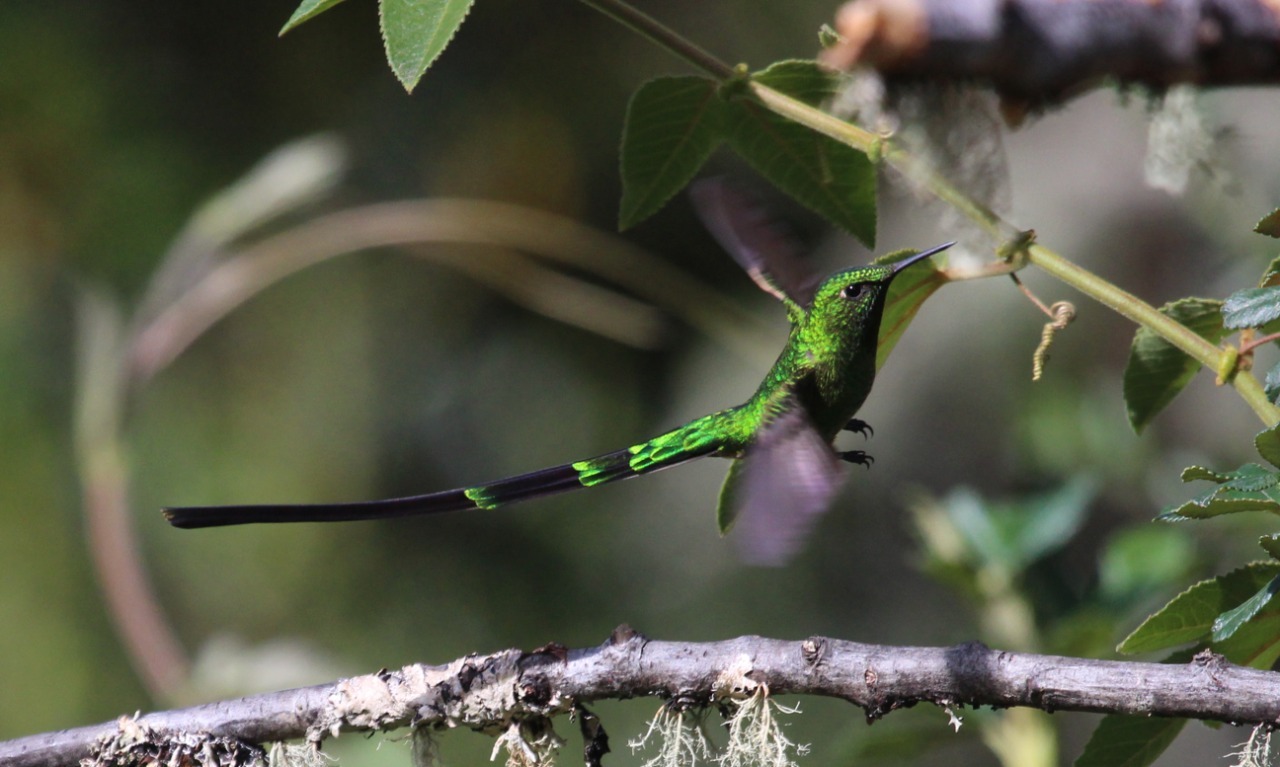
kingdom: Animalia
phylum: Chordata
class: Aves
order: Apodiformes
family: Trochilidae
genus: Lesbia
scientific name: Lesbia nuna
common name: Green-tailed trainbearer
